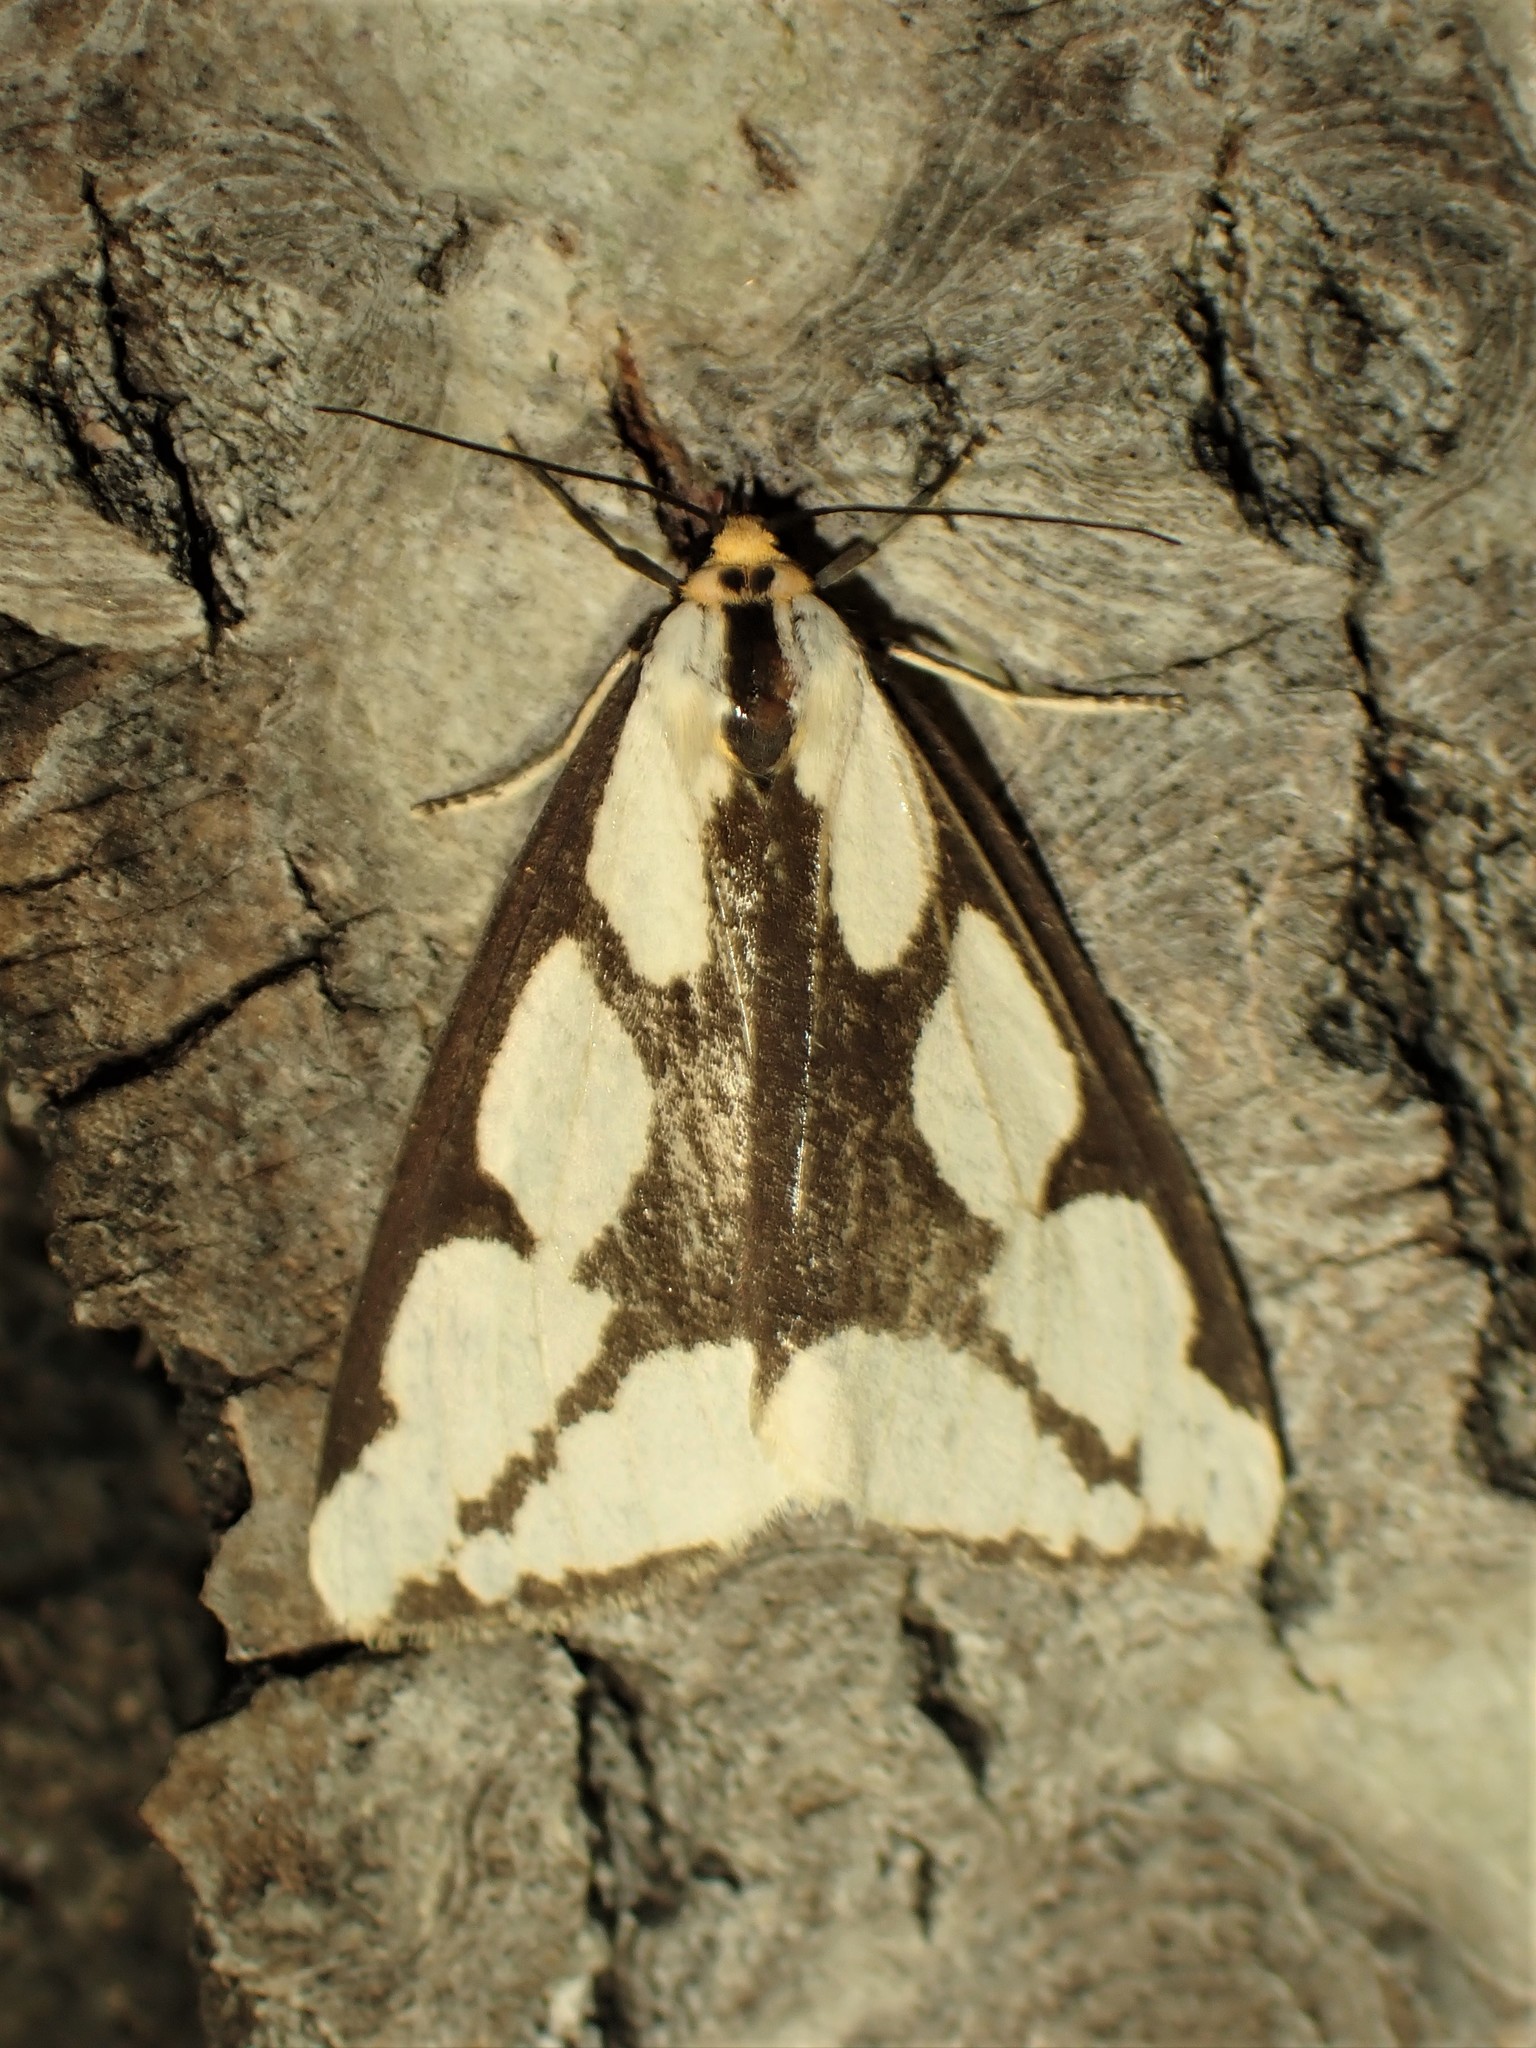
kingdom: Animalia
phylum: Arthropoda
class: Insecta
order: Lepidoptera
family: Erebidae
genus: Haploa
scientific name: Haploa lecontei
